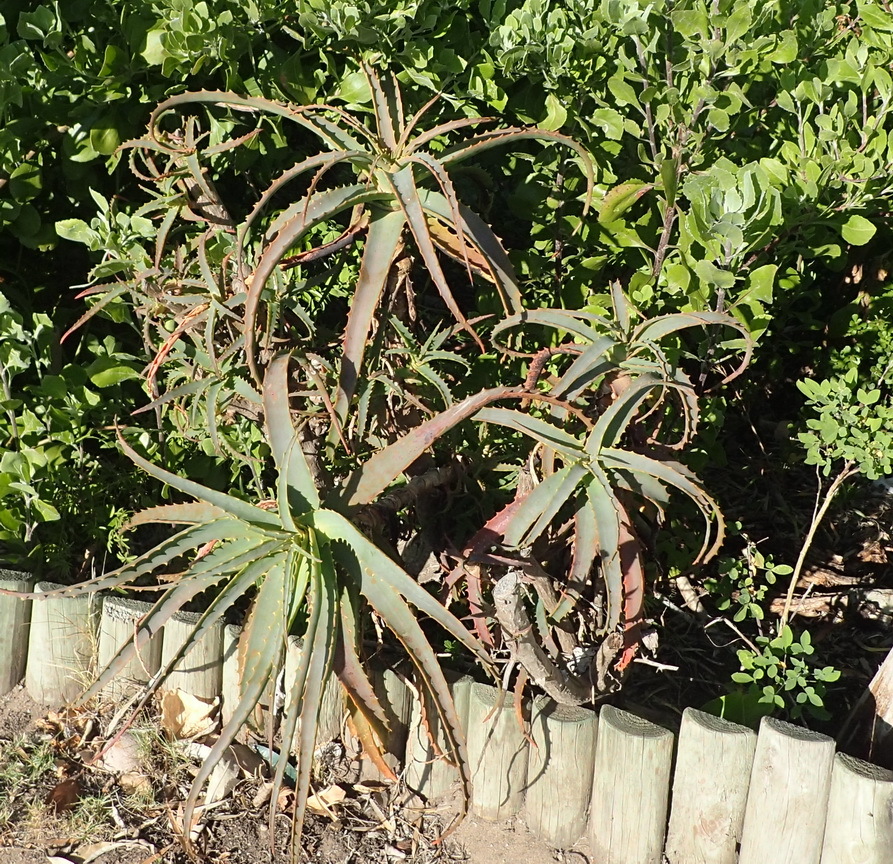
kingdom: Plantae
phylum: Tracheophyta
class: Liliopsida
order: Asparagales
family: Asphodelaceae
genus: Aloe
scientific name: Aloe arborescens
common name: Candelabra aloe
